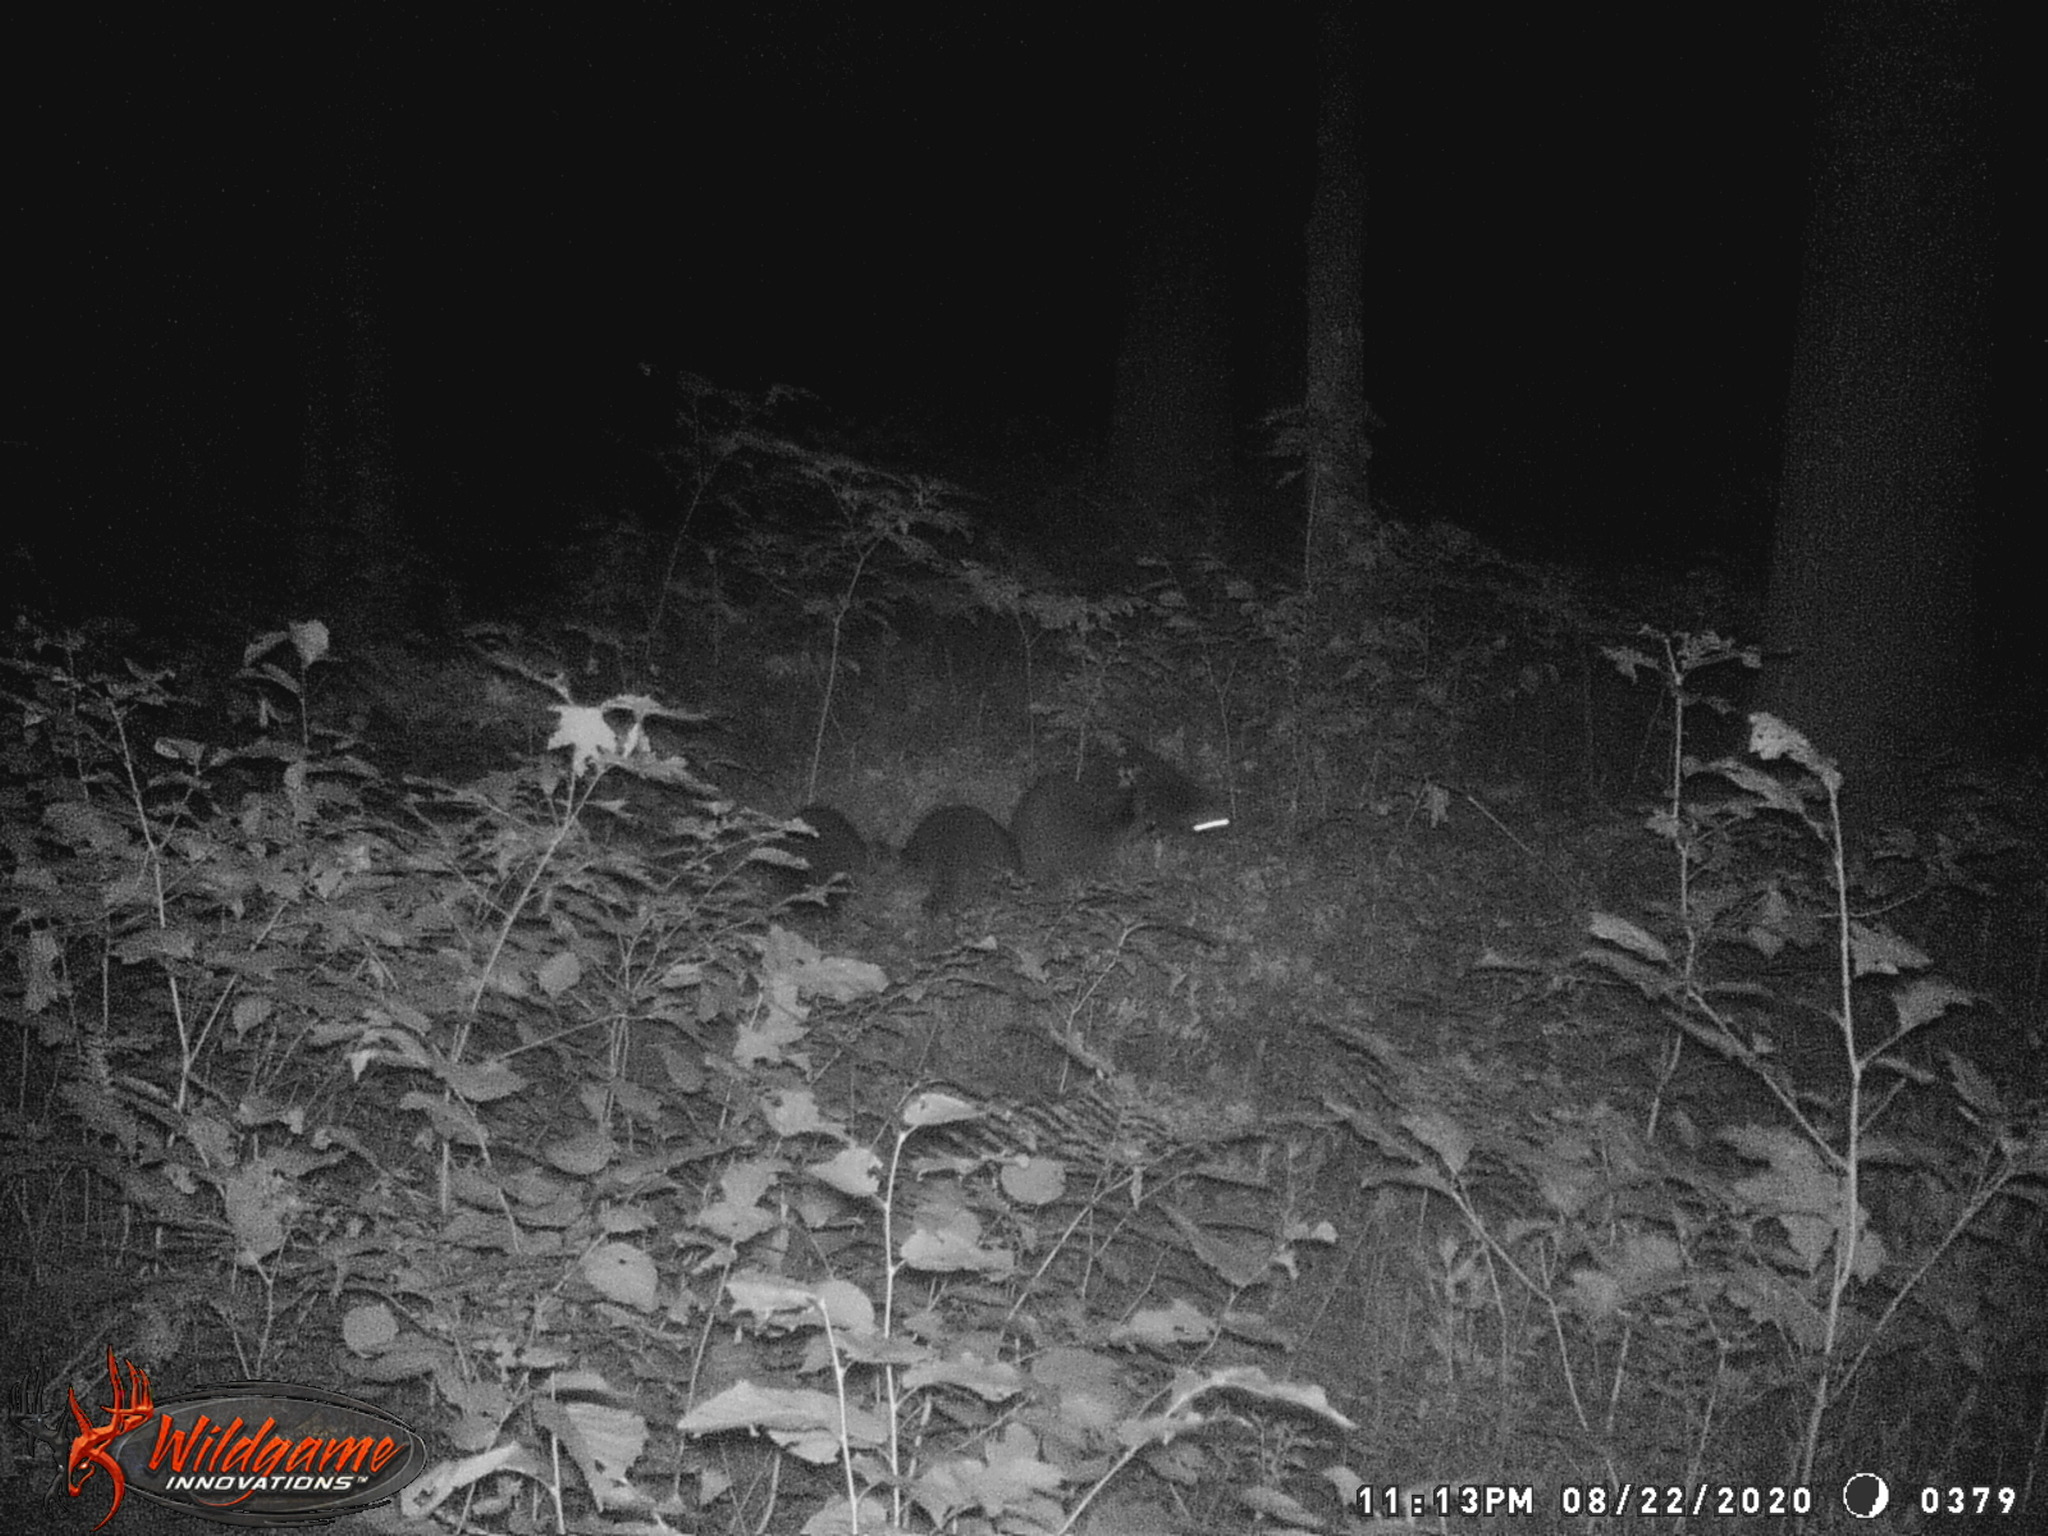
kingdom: Animalia
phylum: Chordata
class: Mammalia
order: Carnivora
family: Procyonidae
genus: Procyon
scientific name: Procyon lotor
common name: Raccoon
